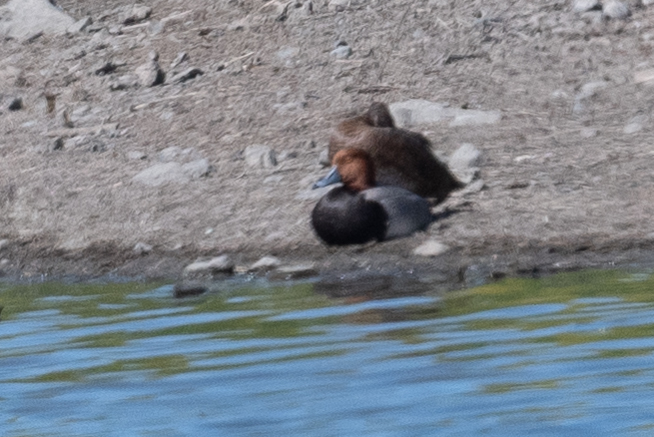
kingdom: Animalia
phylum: Chordata
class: Aves
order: Anseriformes
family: Anatidae
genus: Aythya
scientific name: Aythya americana
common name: Redhead
